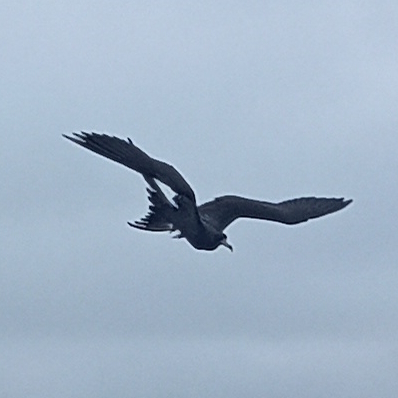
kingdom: Animalia
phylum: Chordata
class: Aves
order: Suliformes
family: Fregatidae
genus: Fregata
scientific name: Fregata magnificens
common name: Magnificent frigatebird
